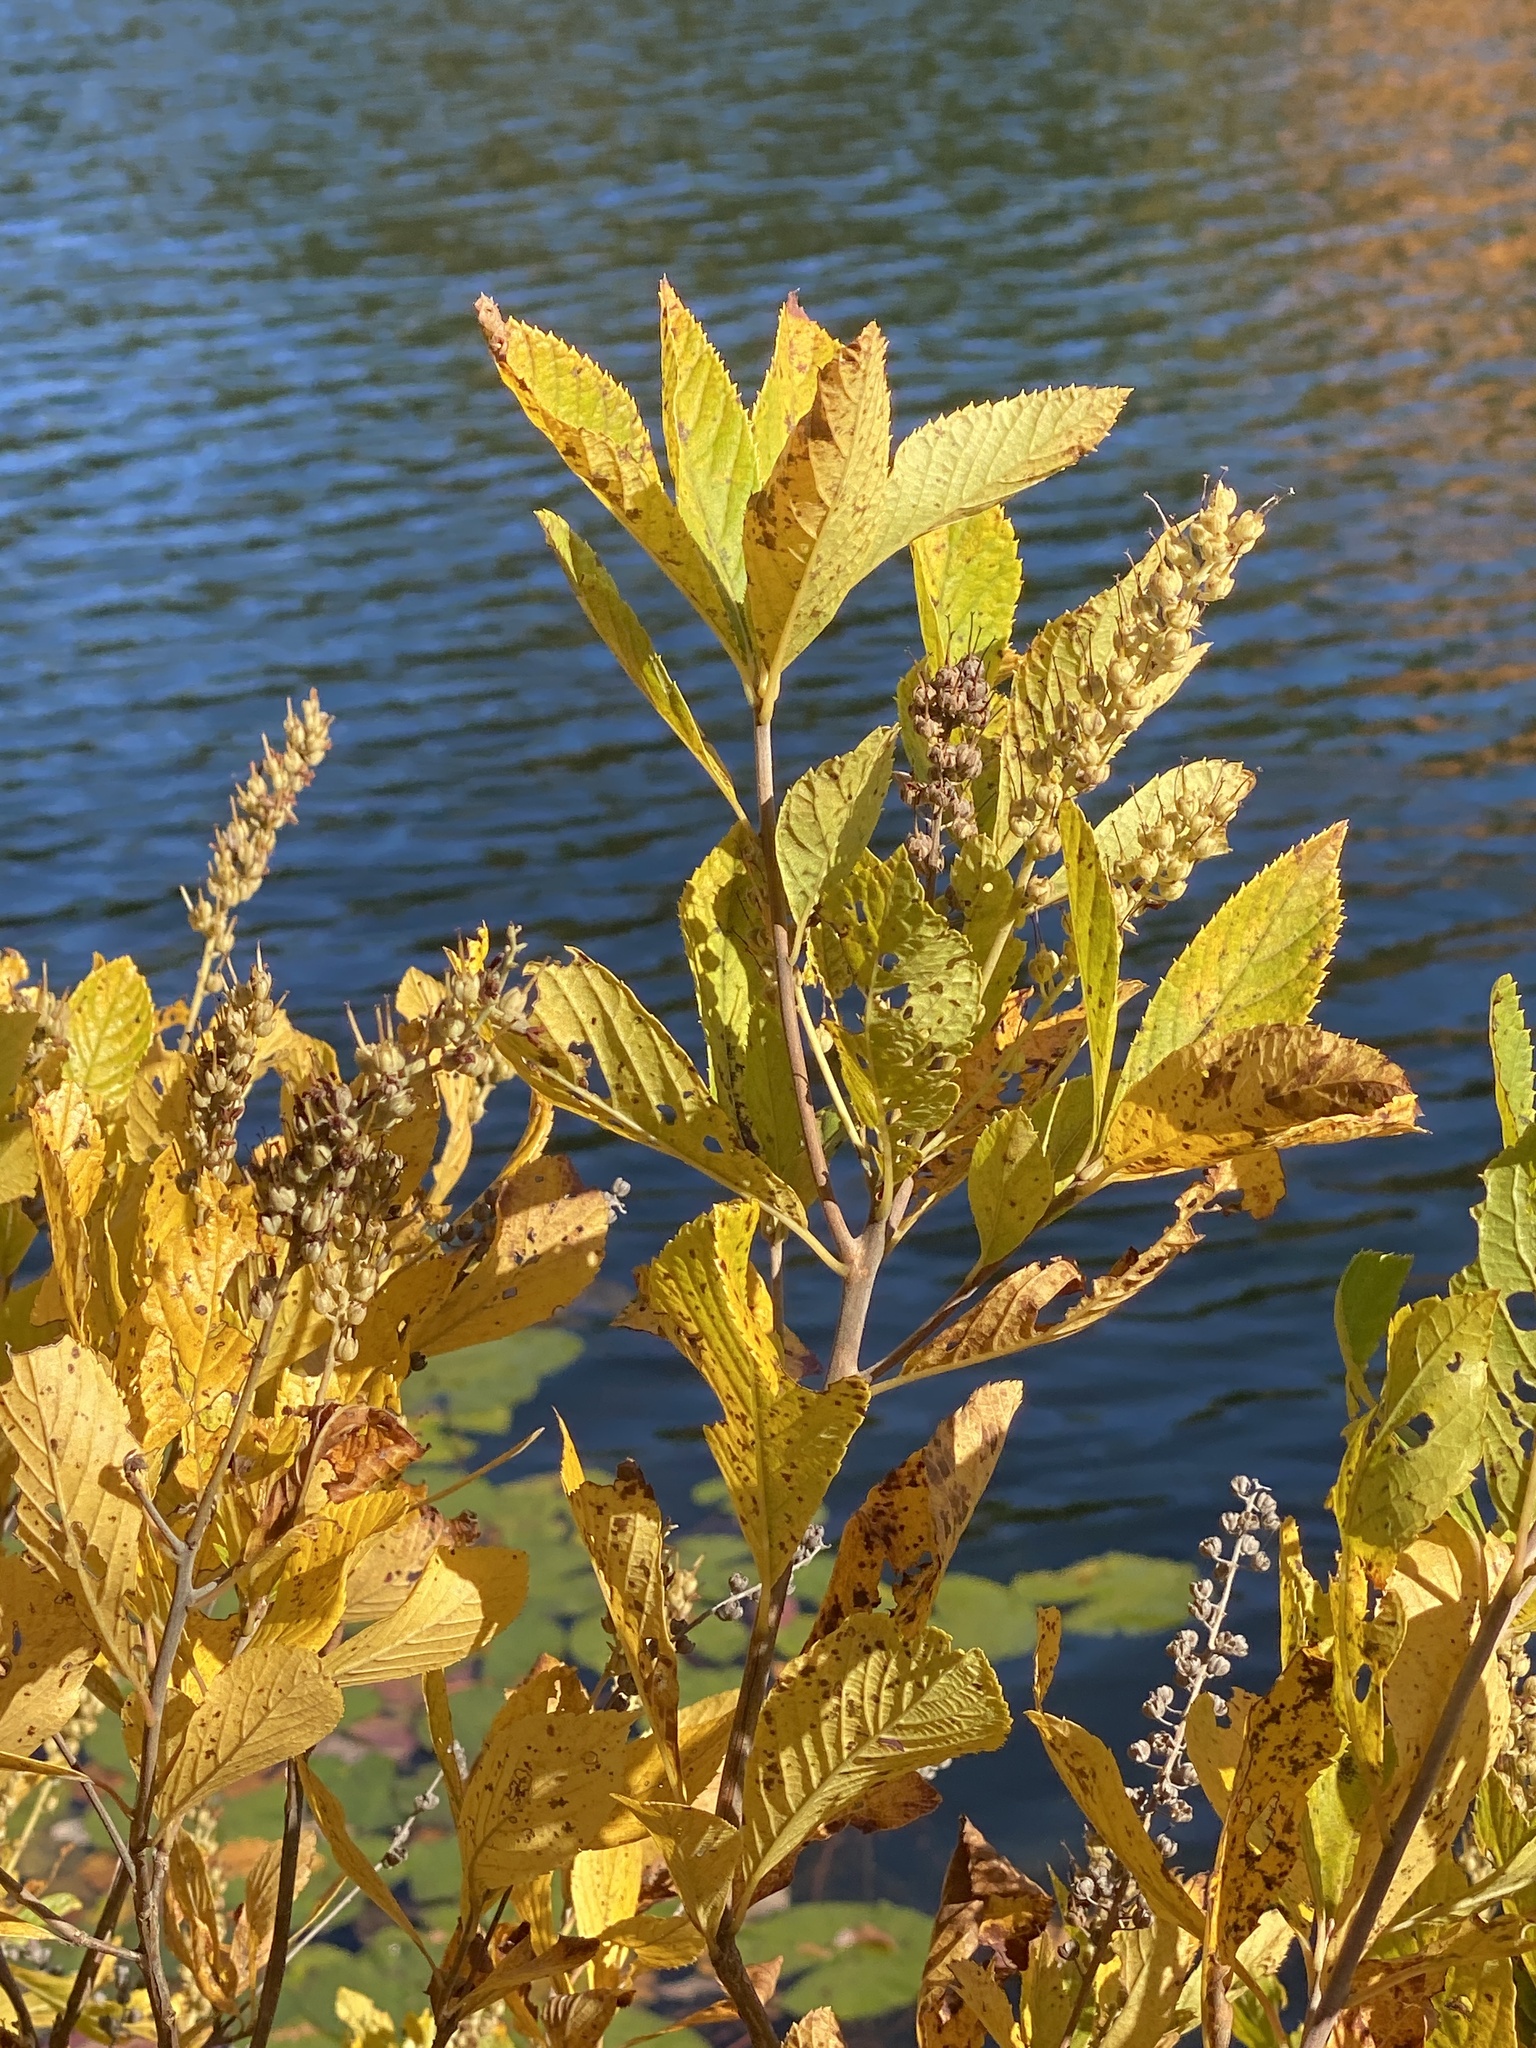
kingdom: Plantae
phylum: Tracheophyta
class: Magnoliopsida
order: Ericales
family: Clethraceae
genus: Clethra
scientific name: Clethra alnifolia
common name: Sweet pepperbush
